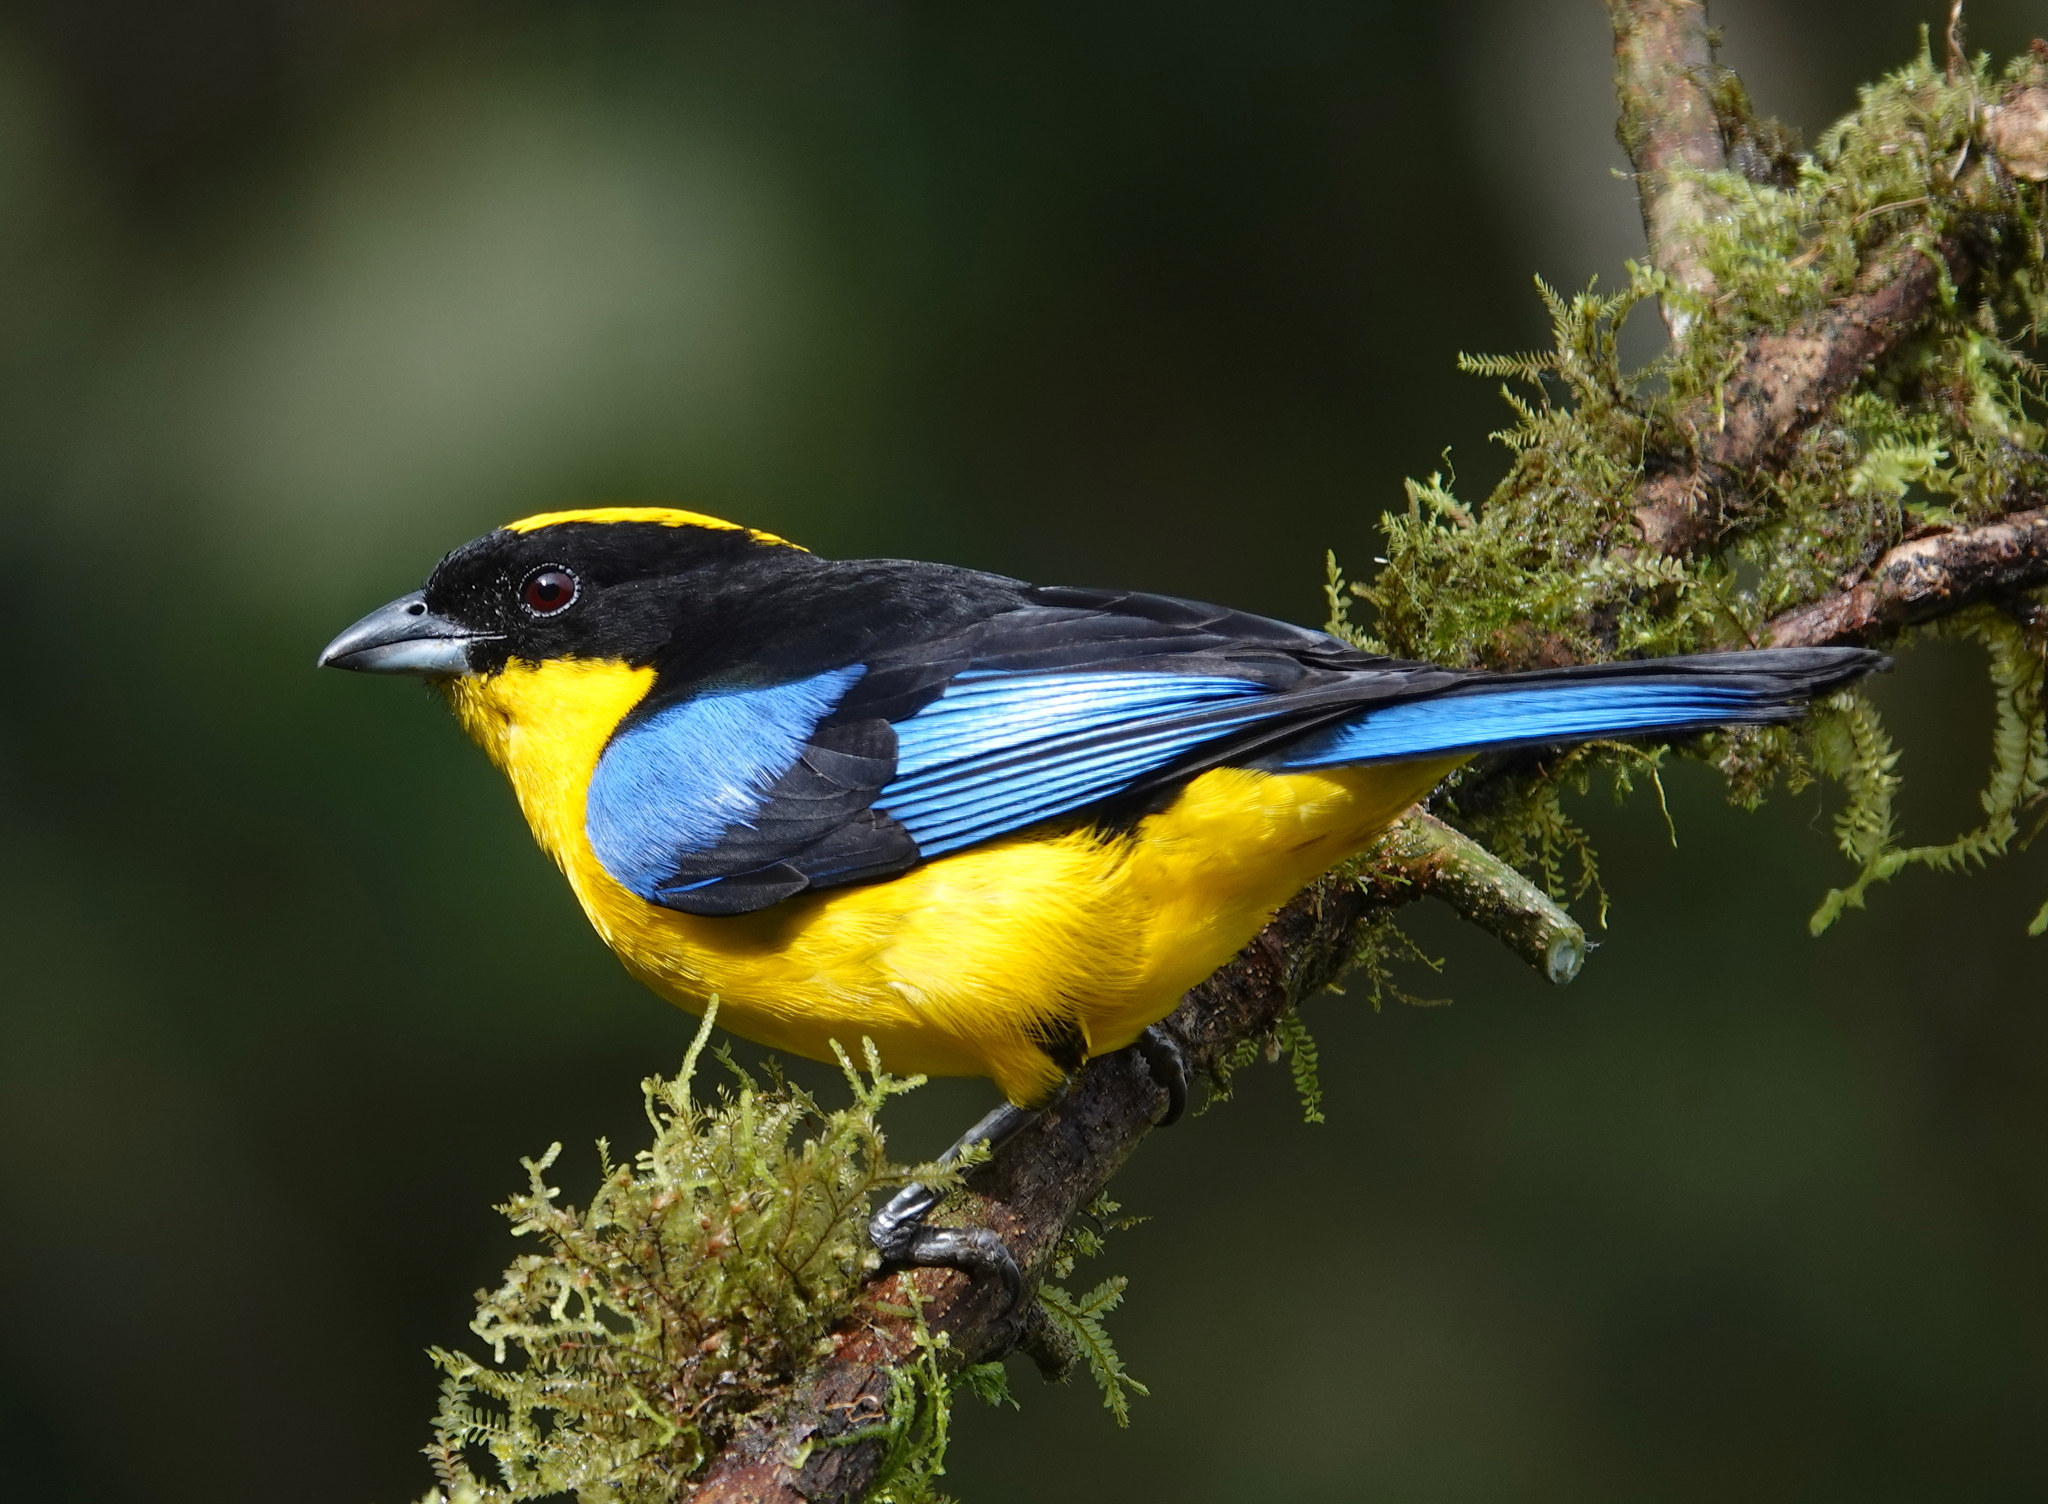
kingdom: Animalia
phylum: Chordata
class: Aves
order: Passeriformes
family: Thraupidae
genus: Anisognathus
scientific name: Anisognathus somptuosus
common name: Blue-winged mountain-tanager
